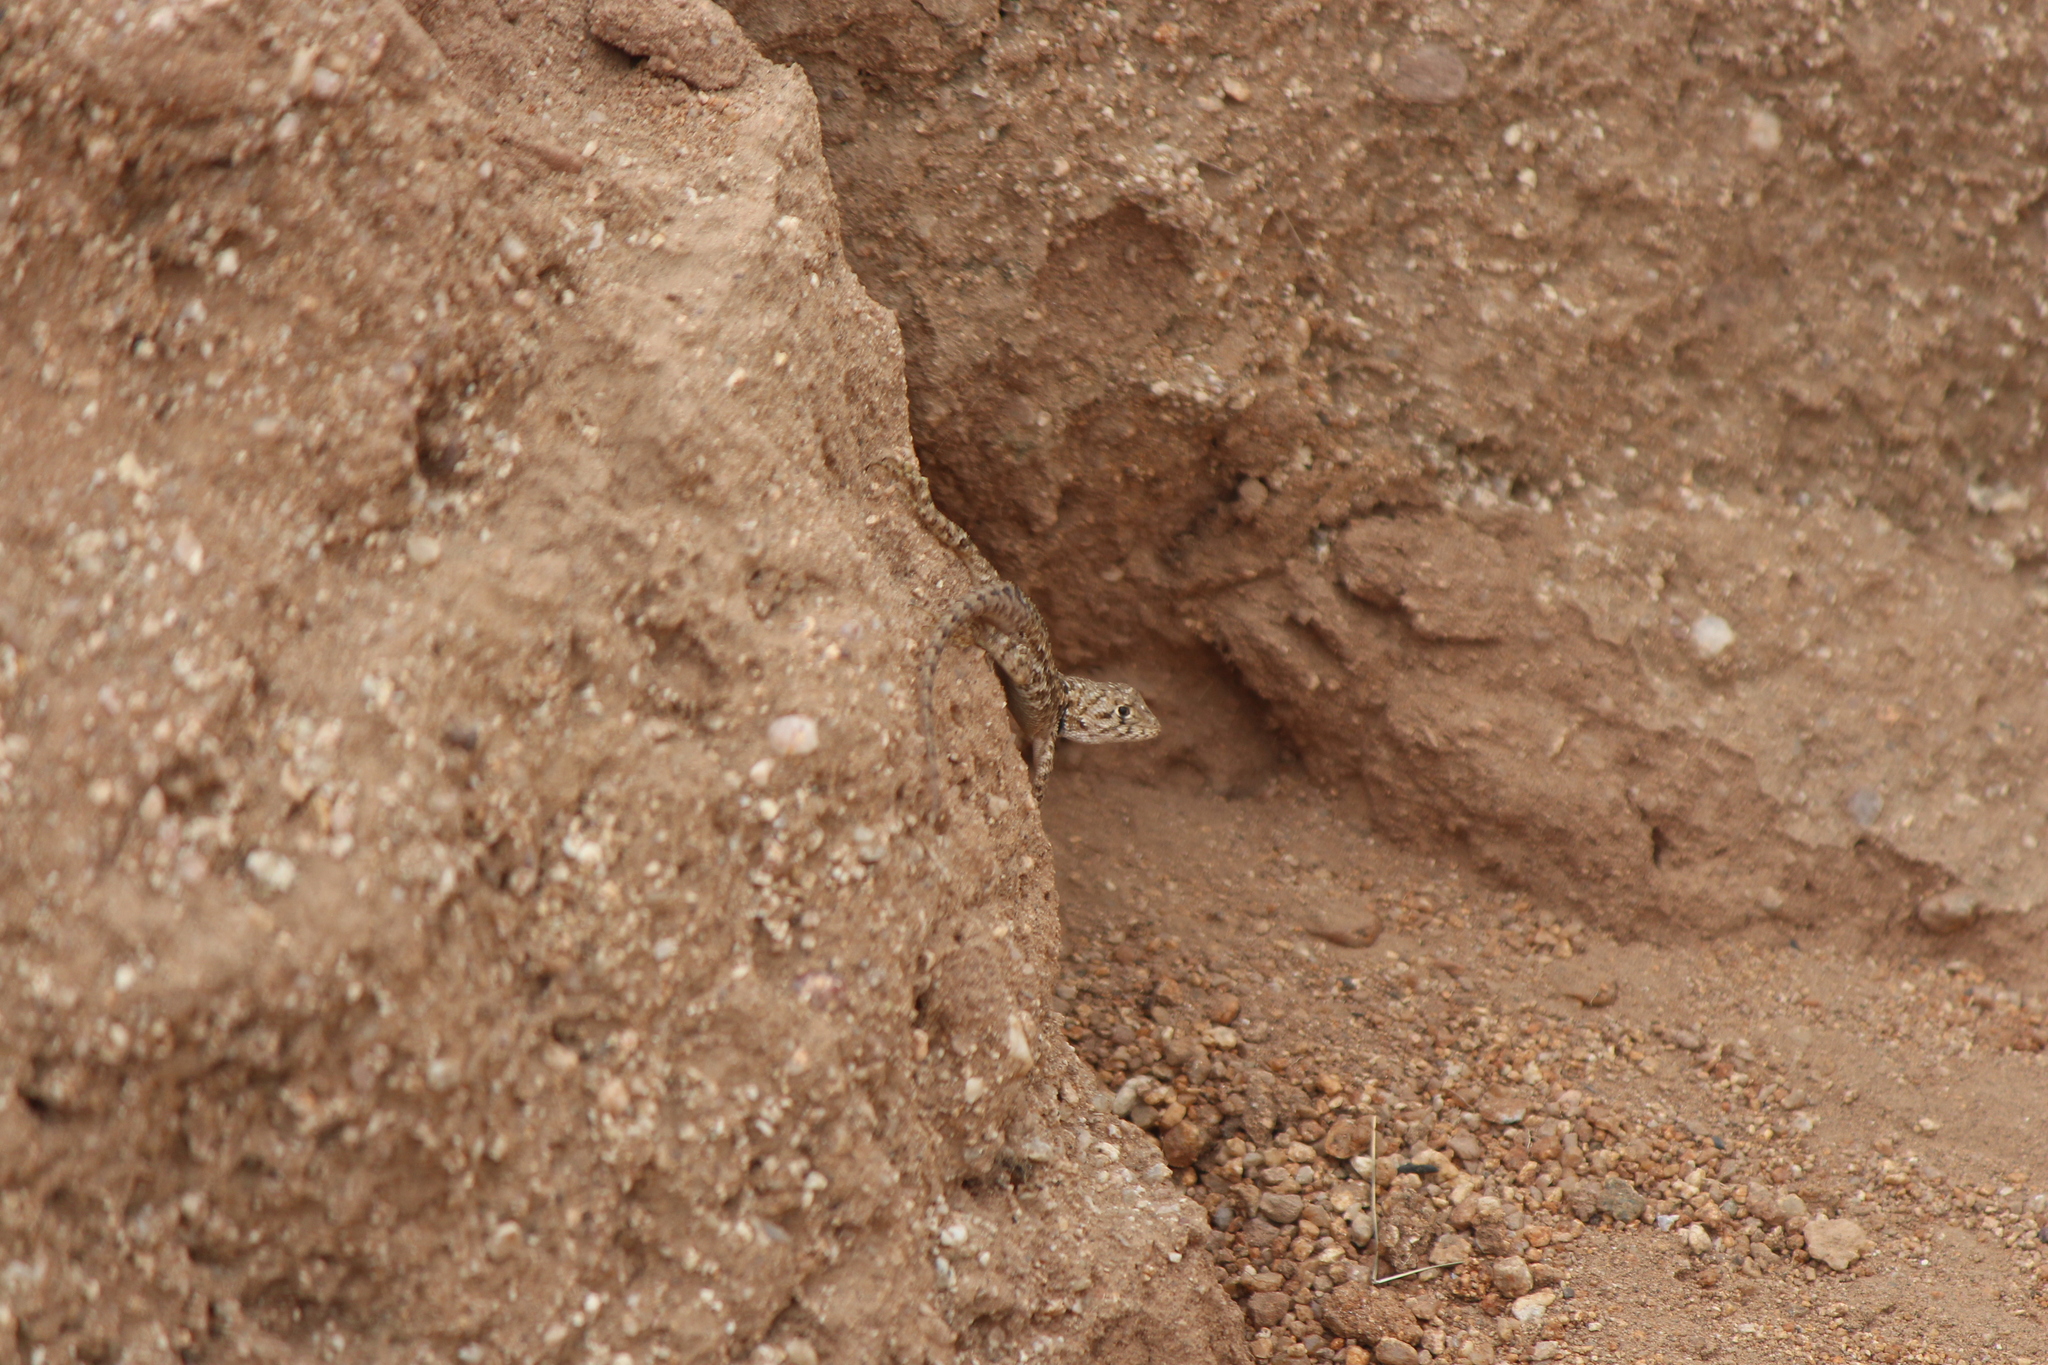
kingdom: Animalia
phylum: Chordata
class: Squamata
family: Phrynosomatidae
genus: Sceloporus
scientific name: Sceloporus zosteromus
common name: Baja spiny lizard
